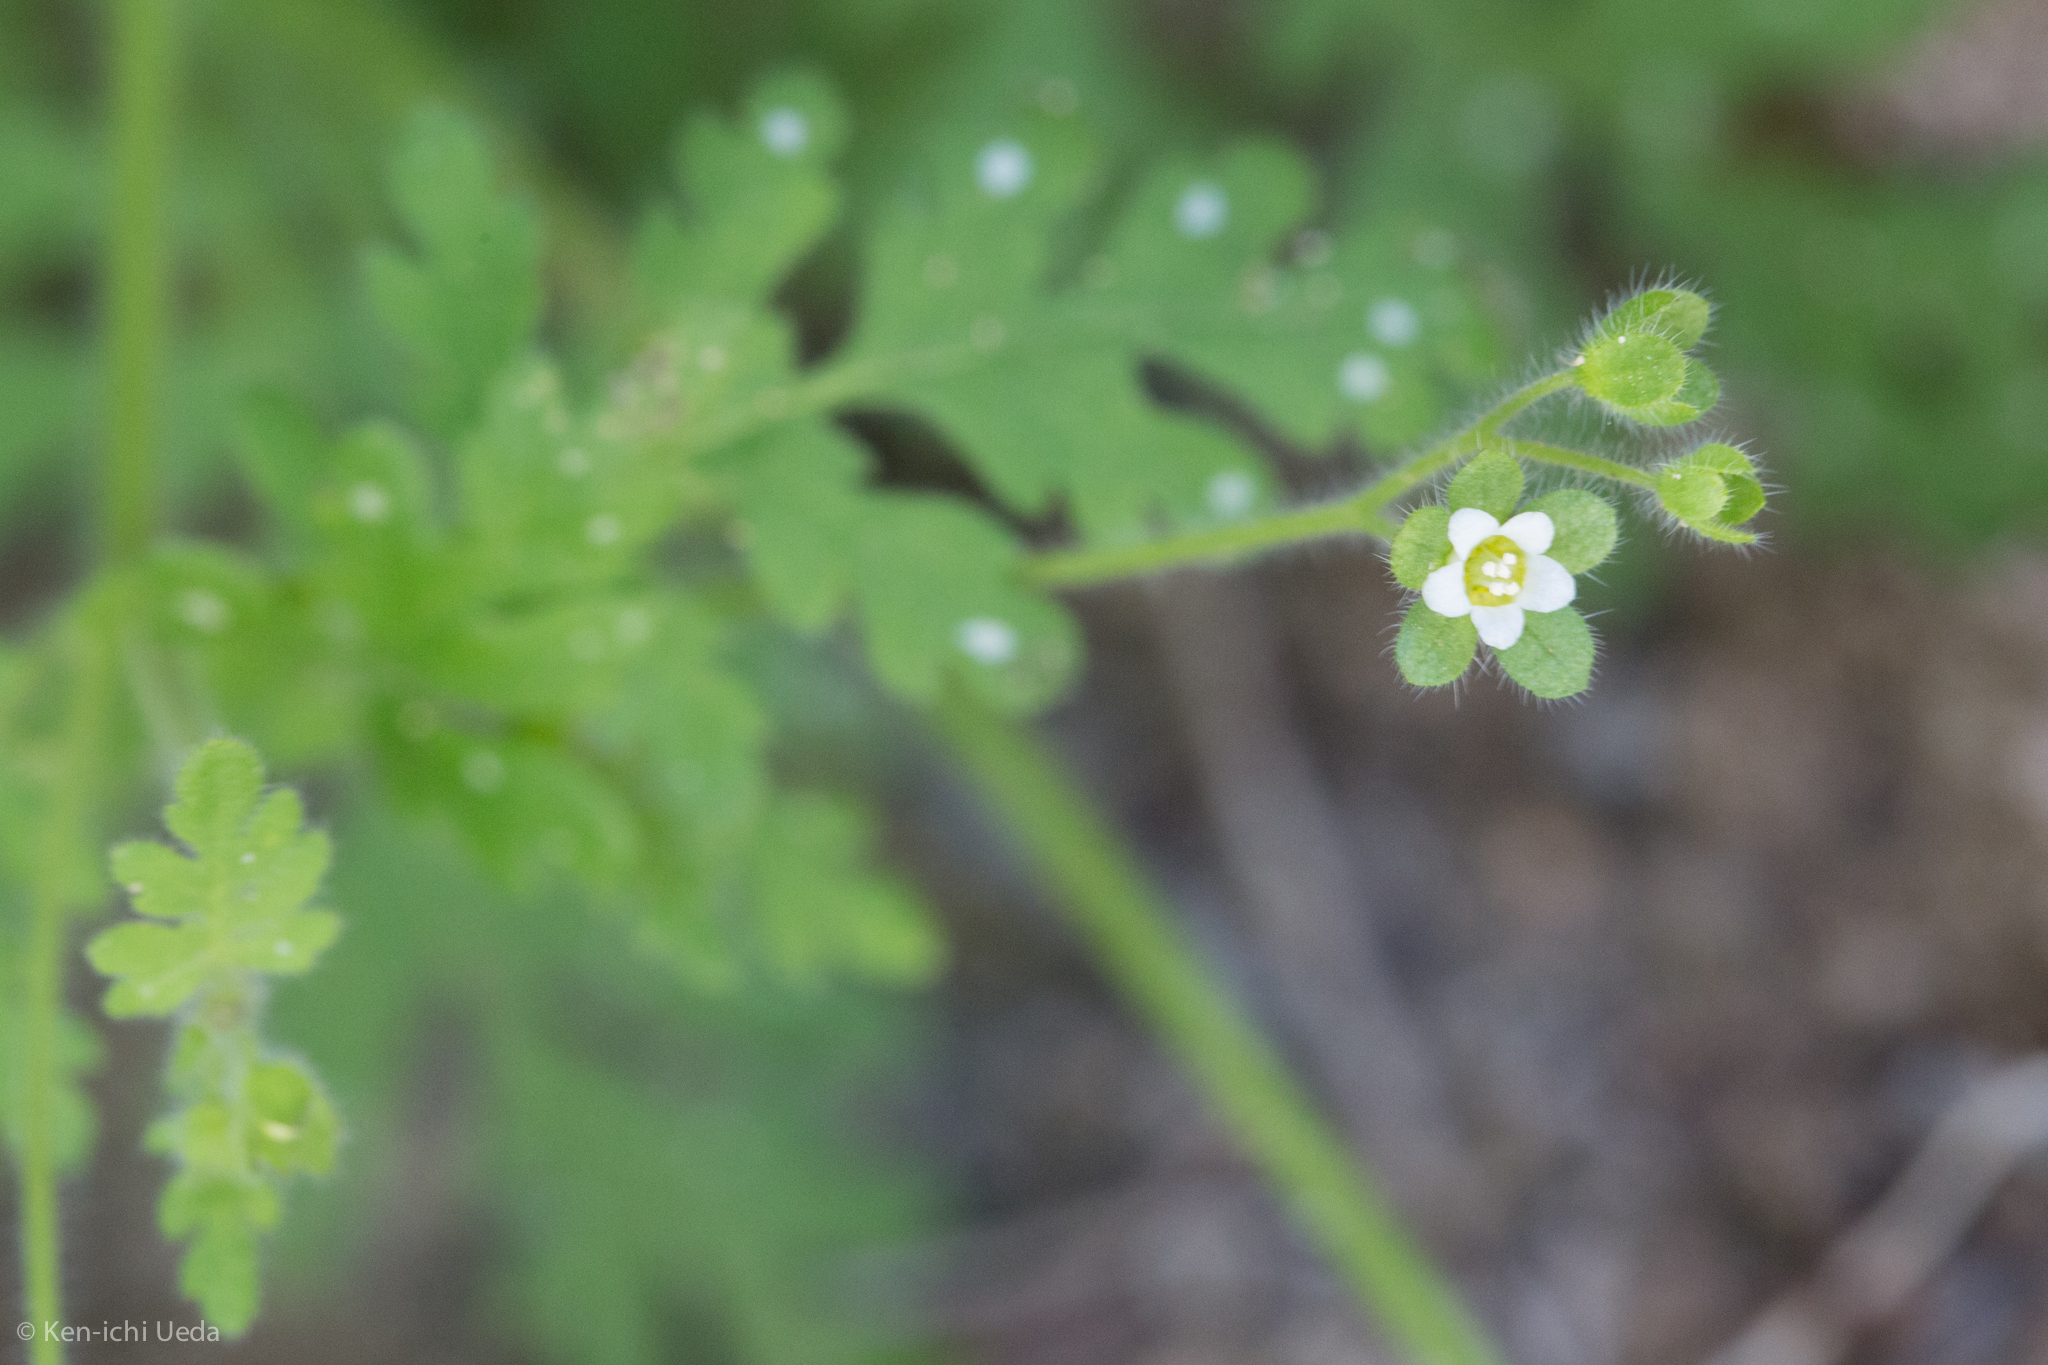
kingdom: Plantae
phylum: Tracheophyta
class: Magnoliopsida
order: Boraginales
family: Hydrophyllaceae
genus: Eucrypta
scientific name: Eucrypta chrysanthemifolia
